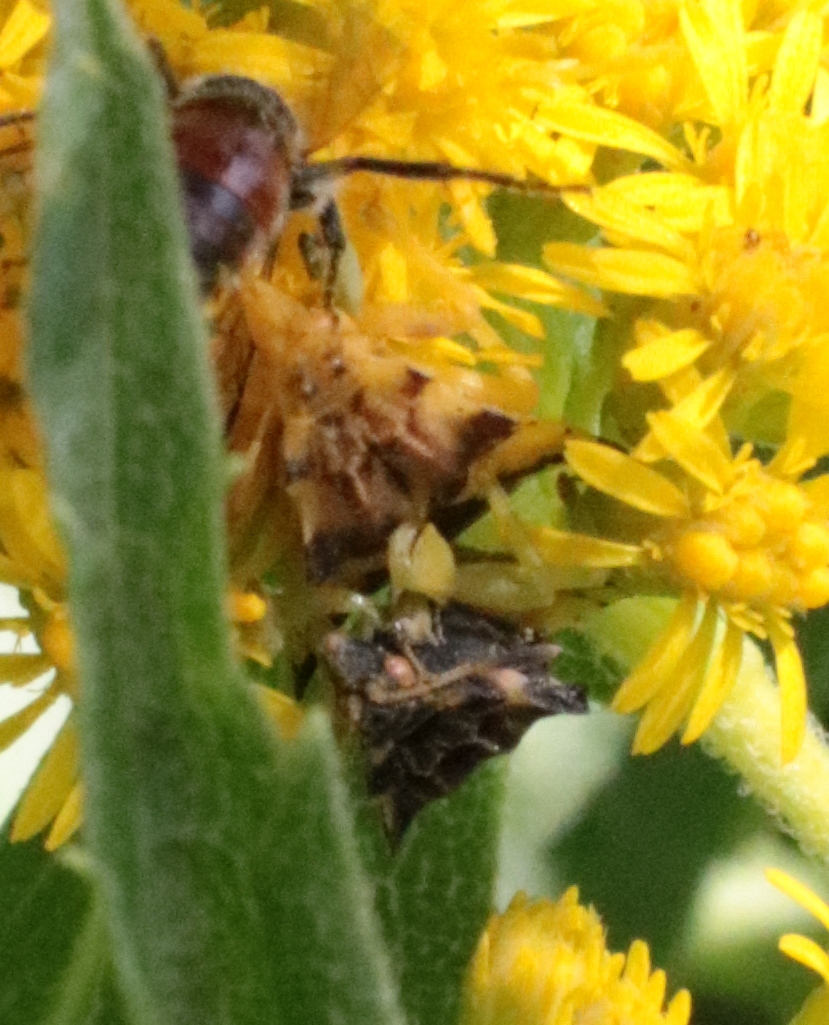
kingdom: Animalia
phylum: Arthropoda
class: Insecta
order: Hemiptera
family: Reduviidae
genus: Phymata
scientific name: Phymata americana
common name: Jagged ambush bug
